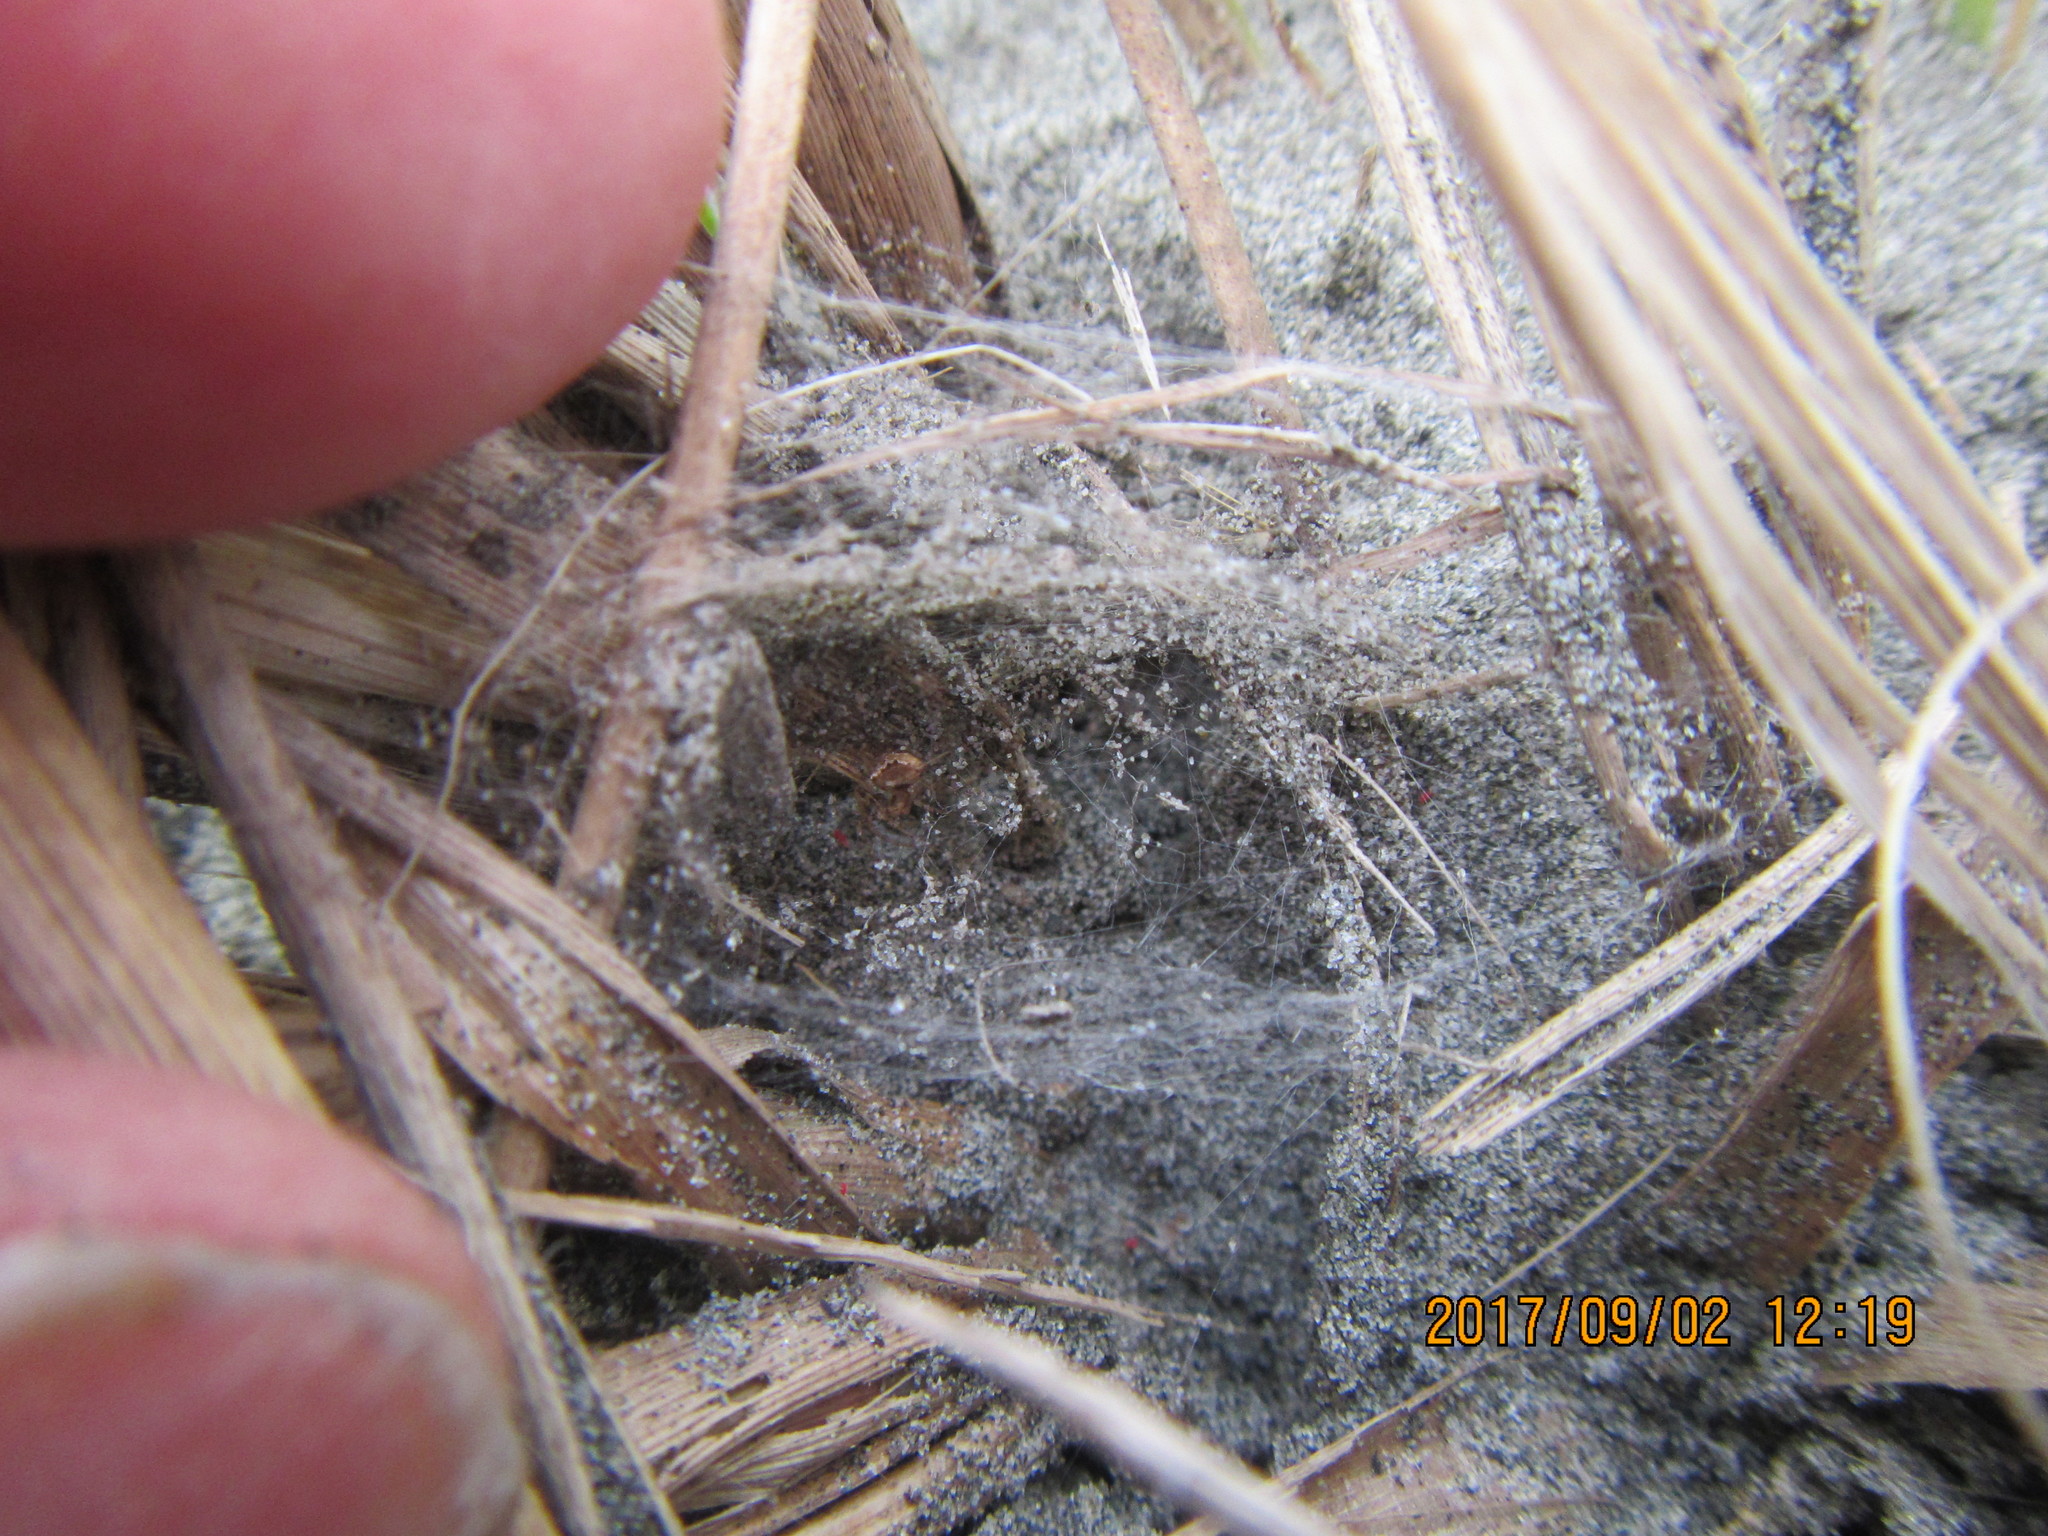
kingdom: Animalia
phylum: Arthropoda
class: Arachnida
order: Araneae
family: Mimetidae
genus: Australomimetus
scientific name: Australomimetus hartleyensis
